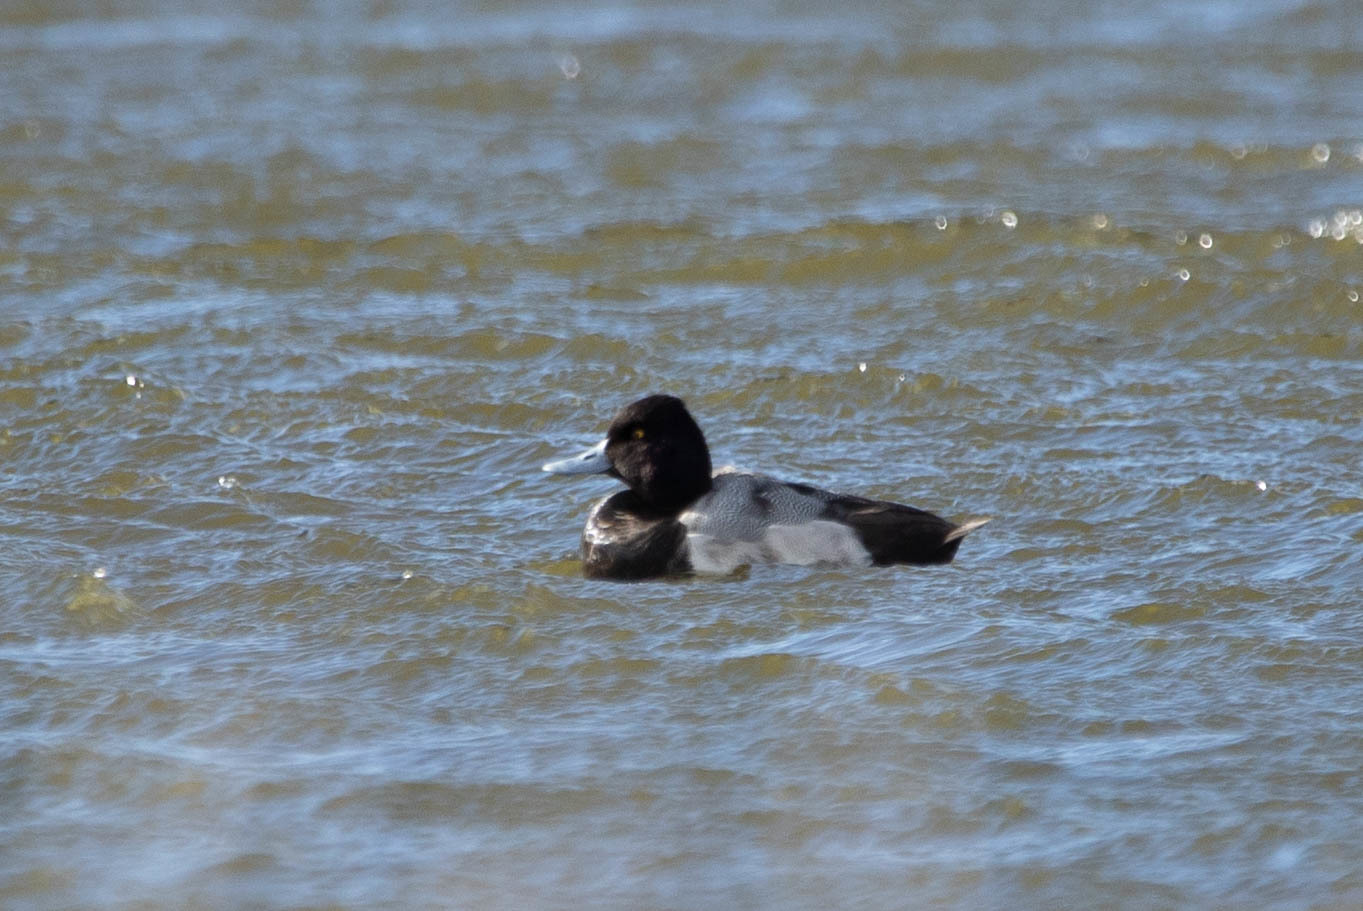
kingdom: Animalia
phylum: Chordata
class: Aves
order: Anseriformes
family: Anatidae
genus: Aythya
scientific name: Aythya affinis
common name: Lesser scaup
